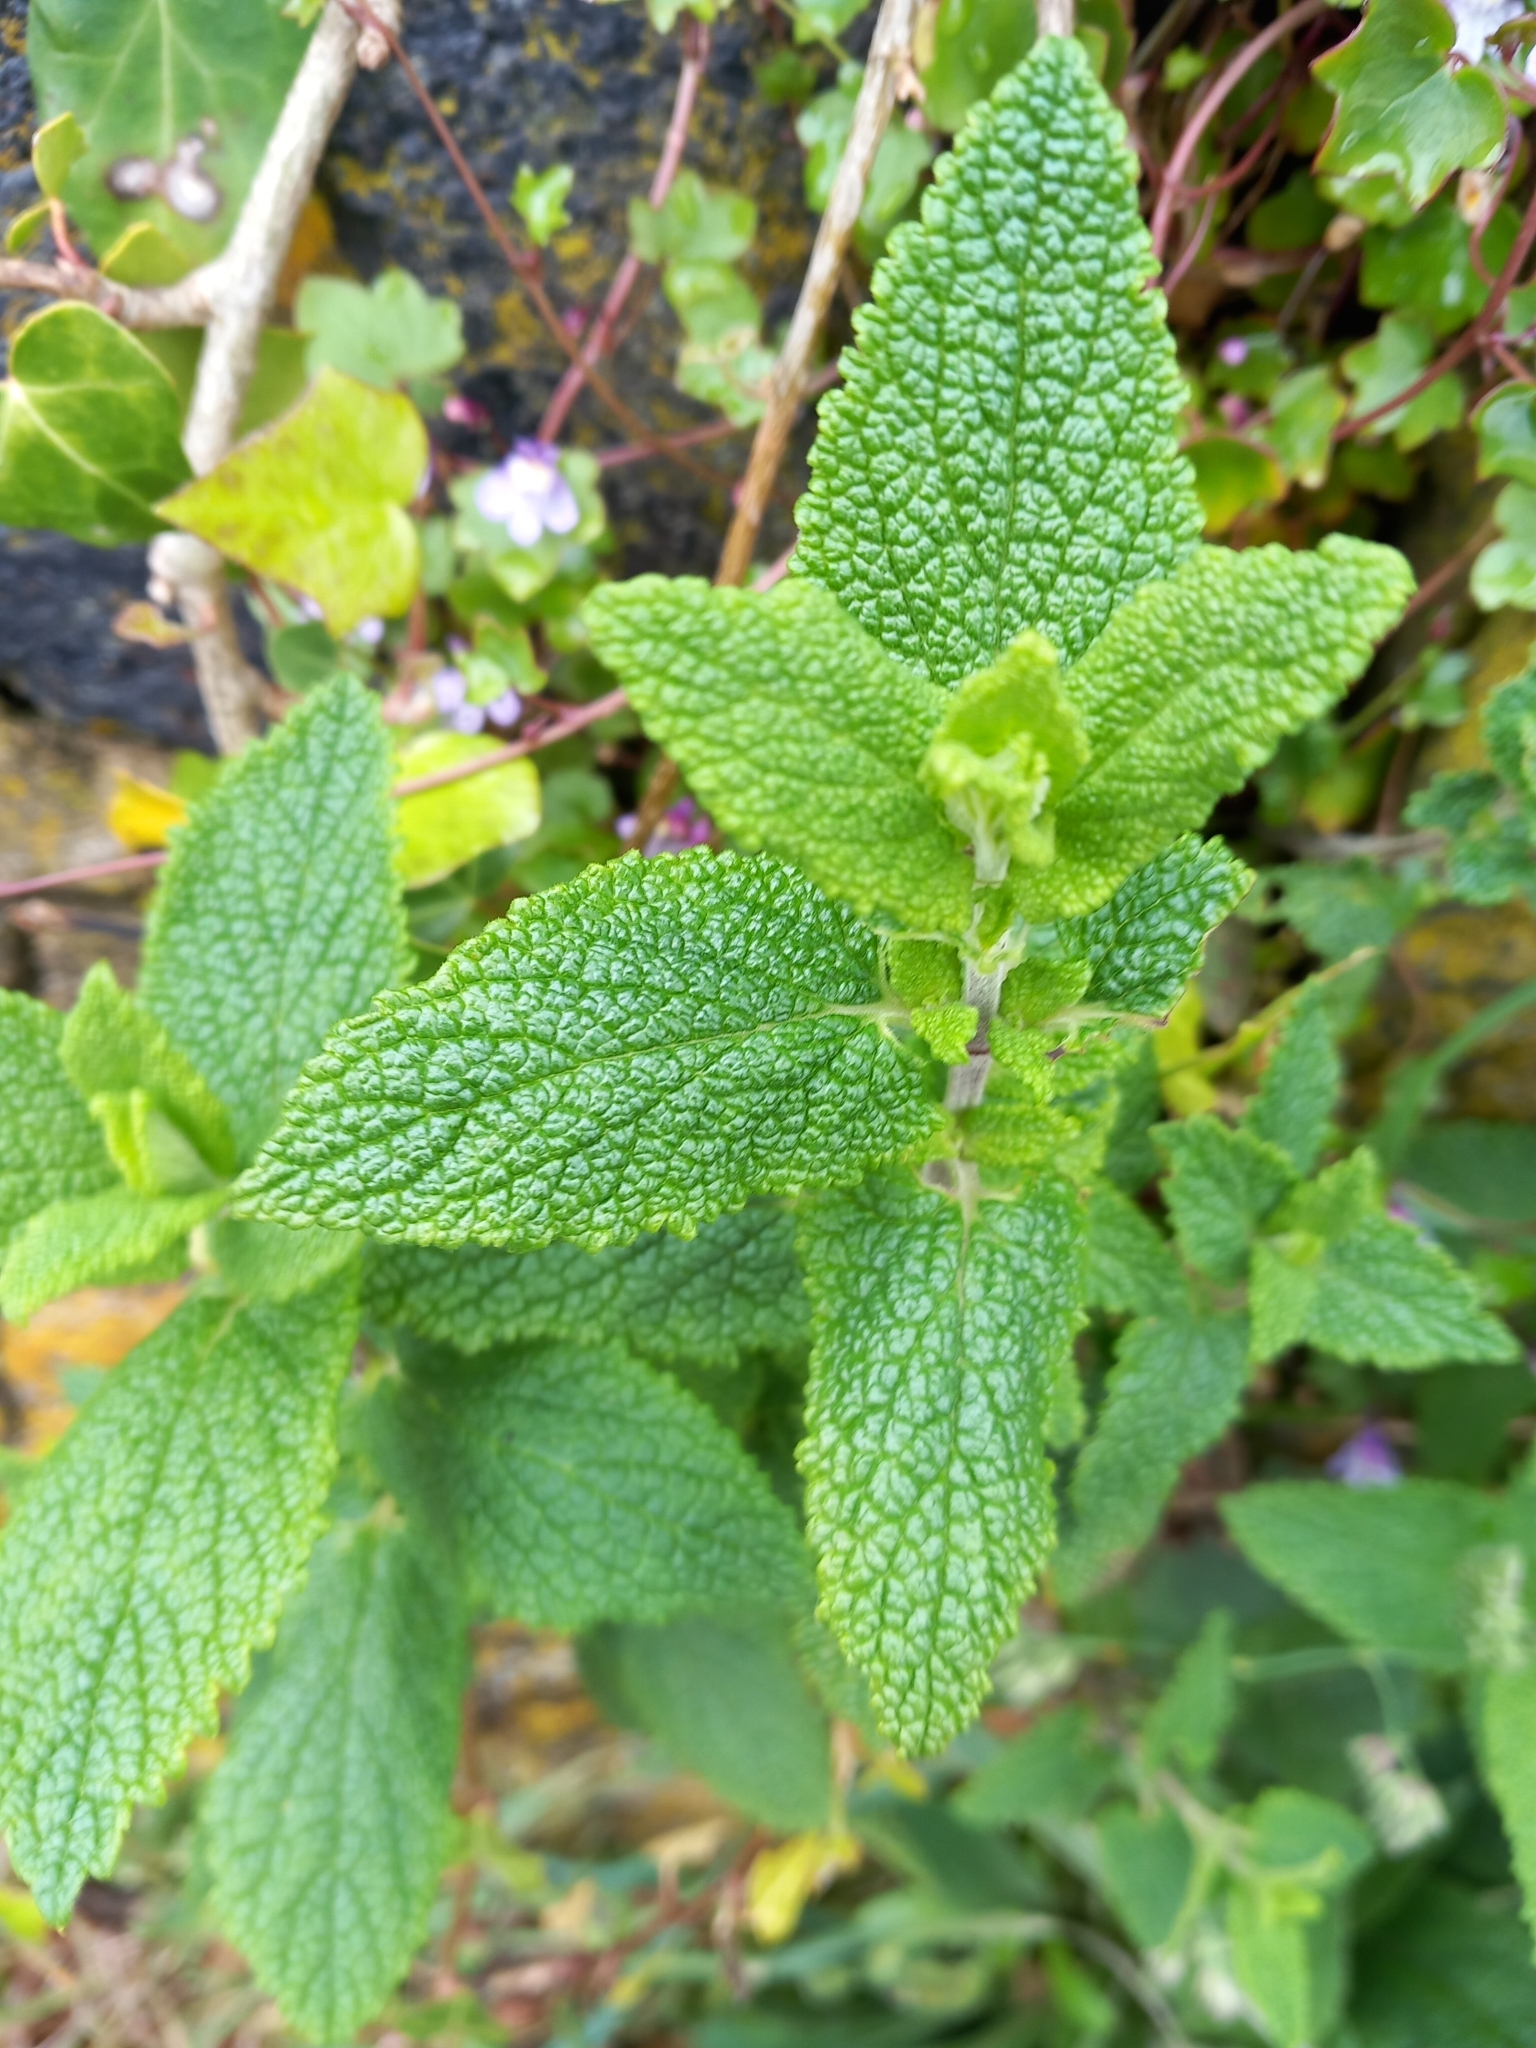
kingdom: Plantae
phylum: Tracheophyta
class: Magnoliopsida
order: Lamiales
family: Lamiaceae
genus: Teucrium
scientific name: Teucrium scorodonia
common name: Woodland germander
